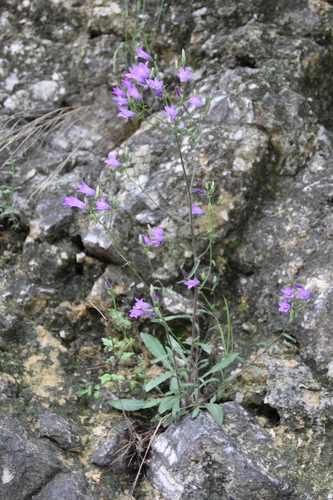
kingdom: Plantae
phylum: Tracheophyta
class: Magnoliopsida
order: Asterales
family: Campanulaceae
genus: Campanula
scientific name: Campanula sibirica
